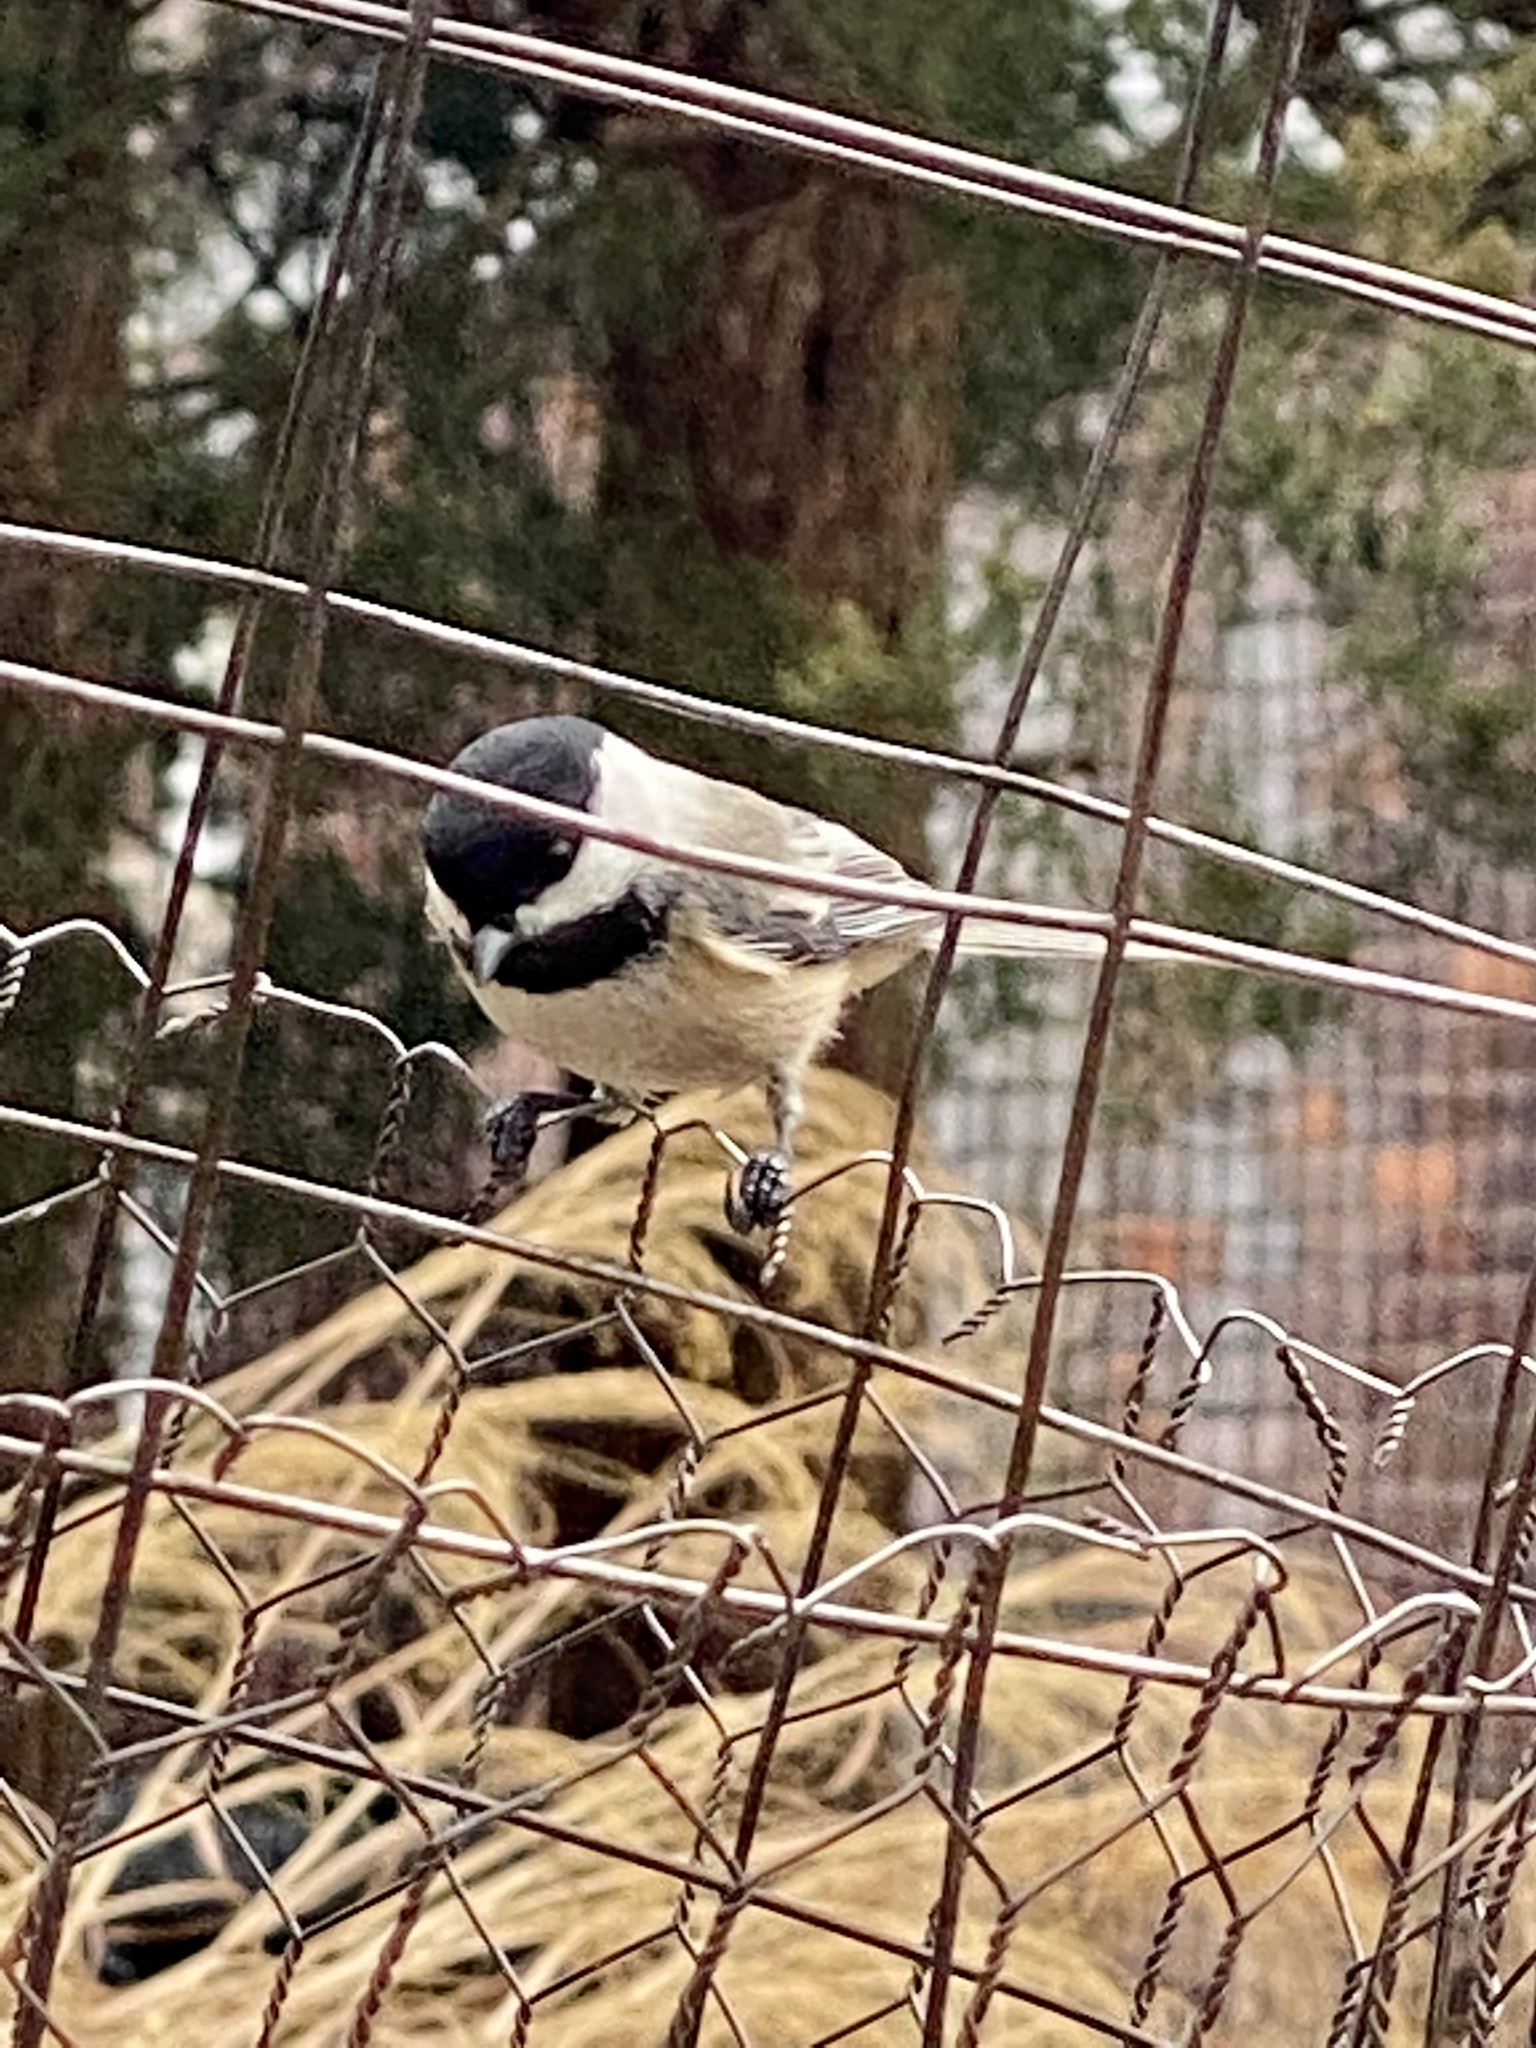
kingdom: Animalia
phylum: Chordata
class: Aves
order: Passeriformes
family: Paridae
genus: Poecile
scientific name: Poecile atricapillus
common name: Black-capped chickadee
